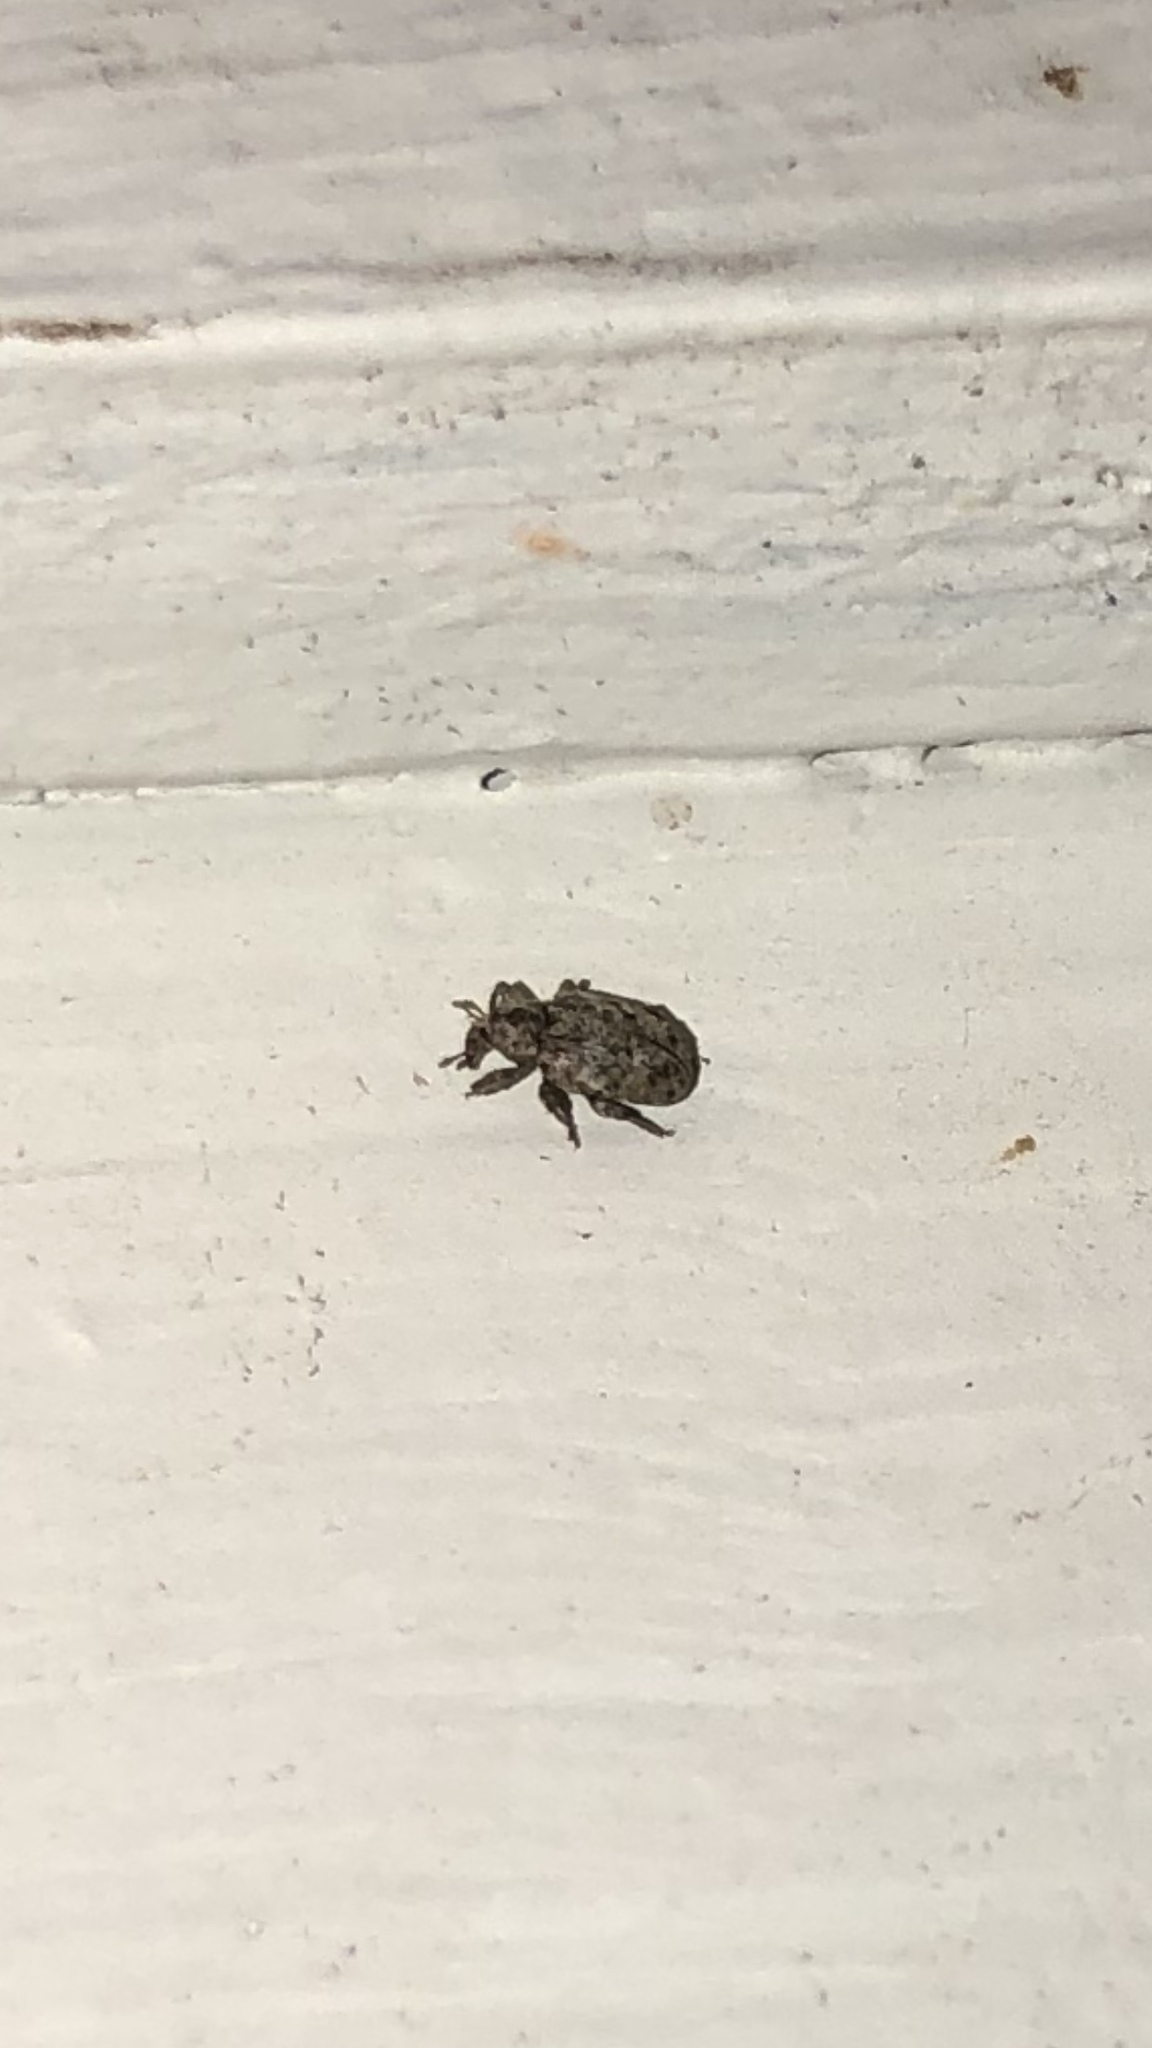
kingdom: Animalia
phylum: Arthropoda
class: Insecta
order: Coleoptera
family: Curculionidae
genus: Conotrachelus
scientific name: Conotrachelus recessus
